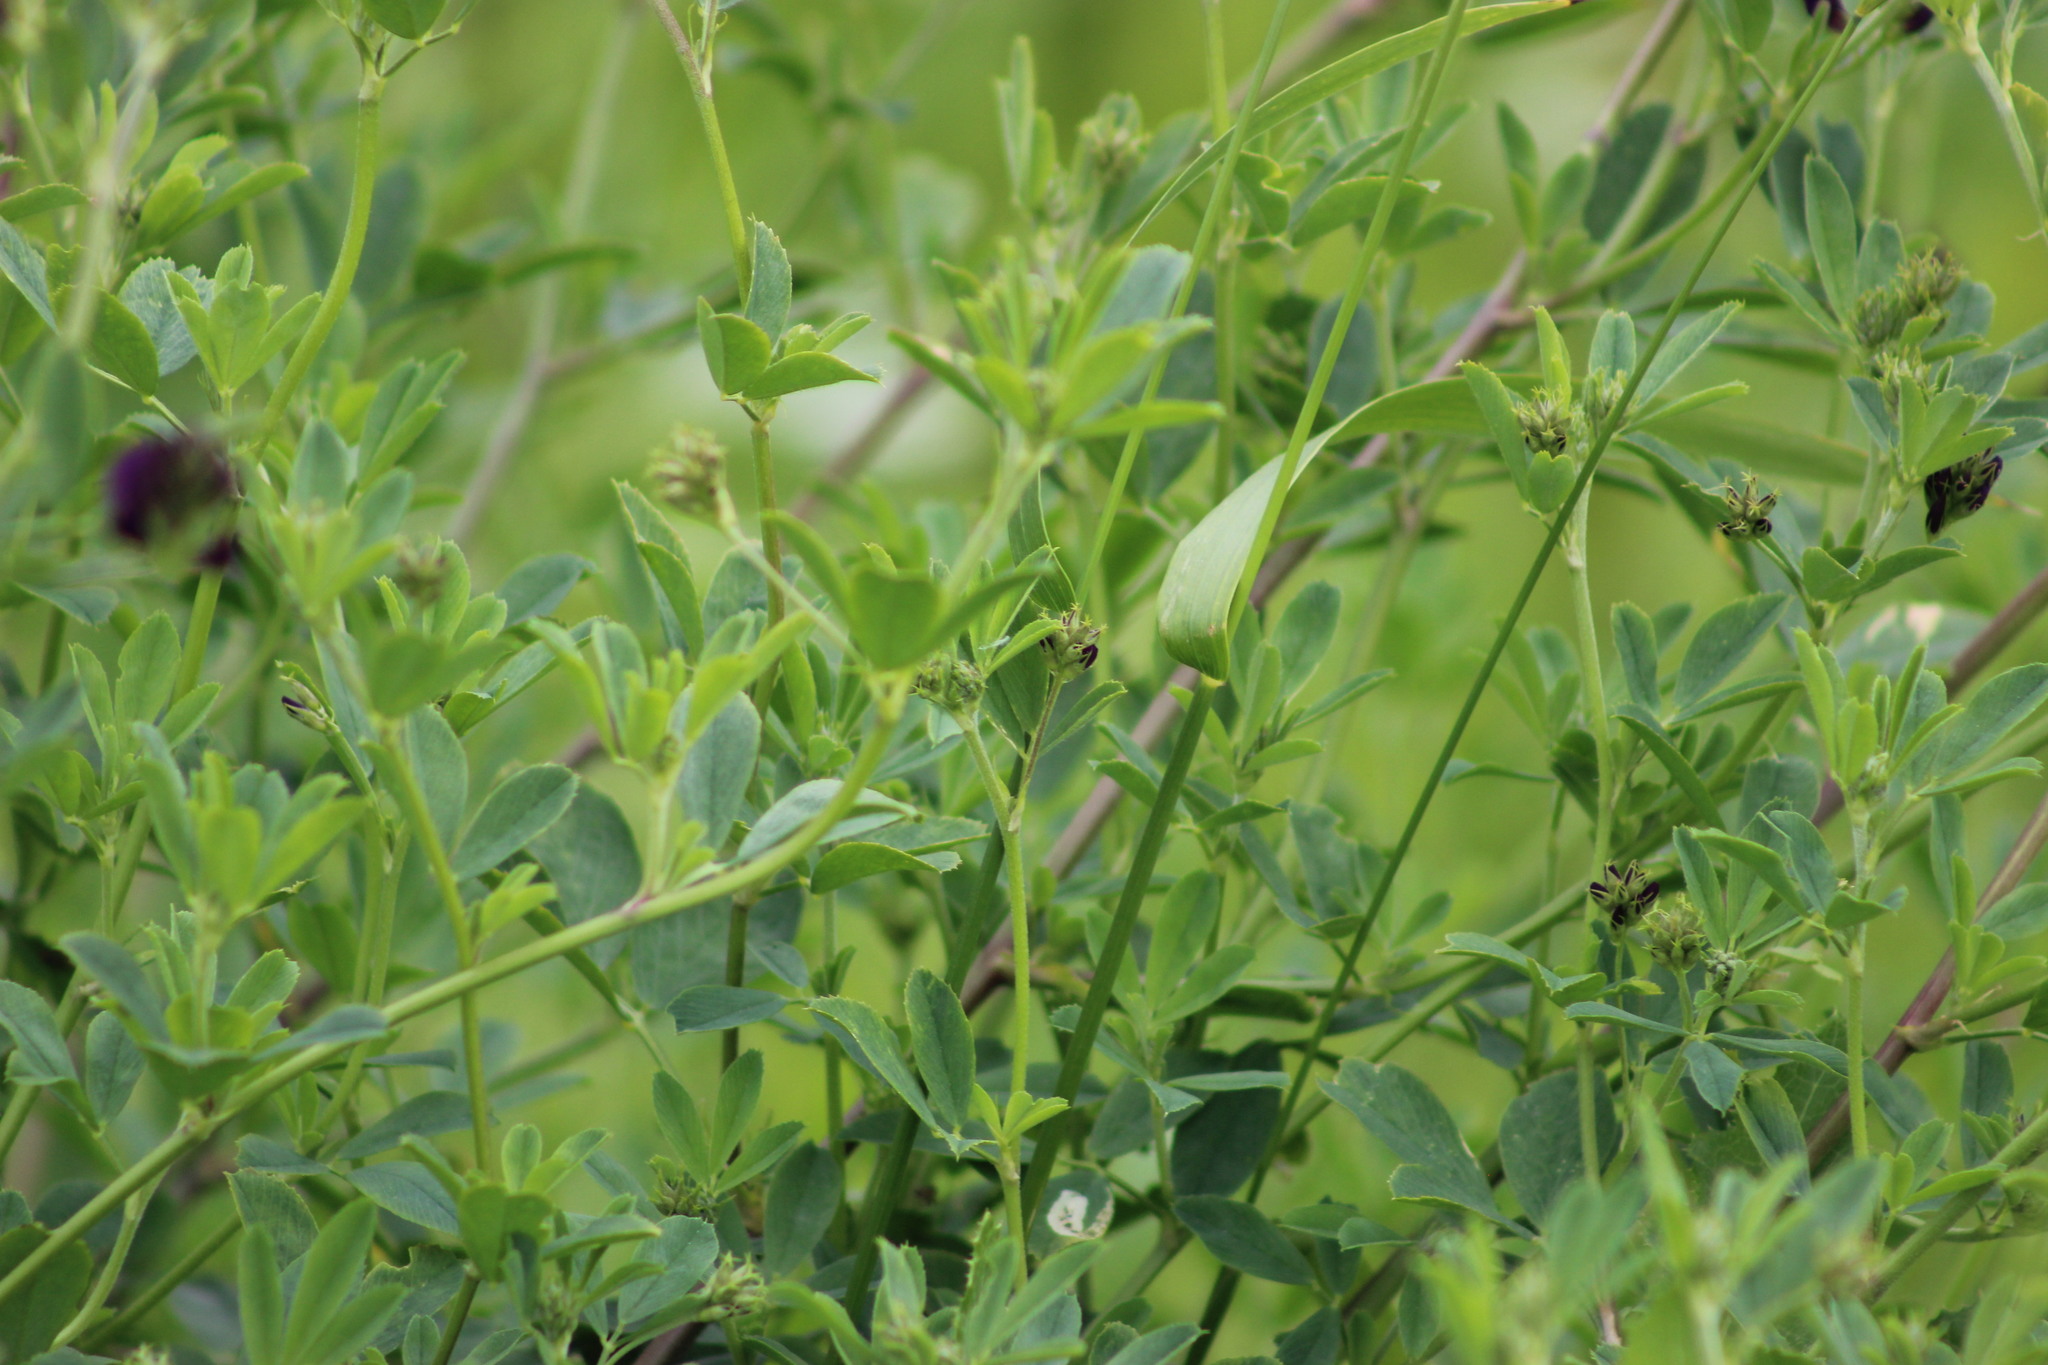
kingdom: Plantae
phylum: Tracheophyta
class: Magnoliopsida
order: Fabales
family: Fabaceae
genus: Medicago
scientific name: Medicago varia
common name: Sand lucerne
